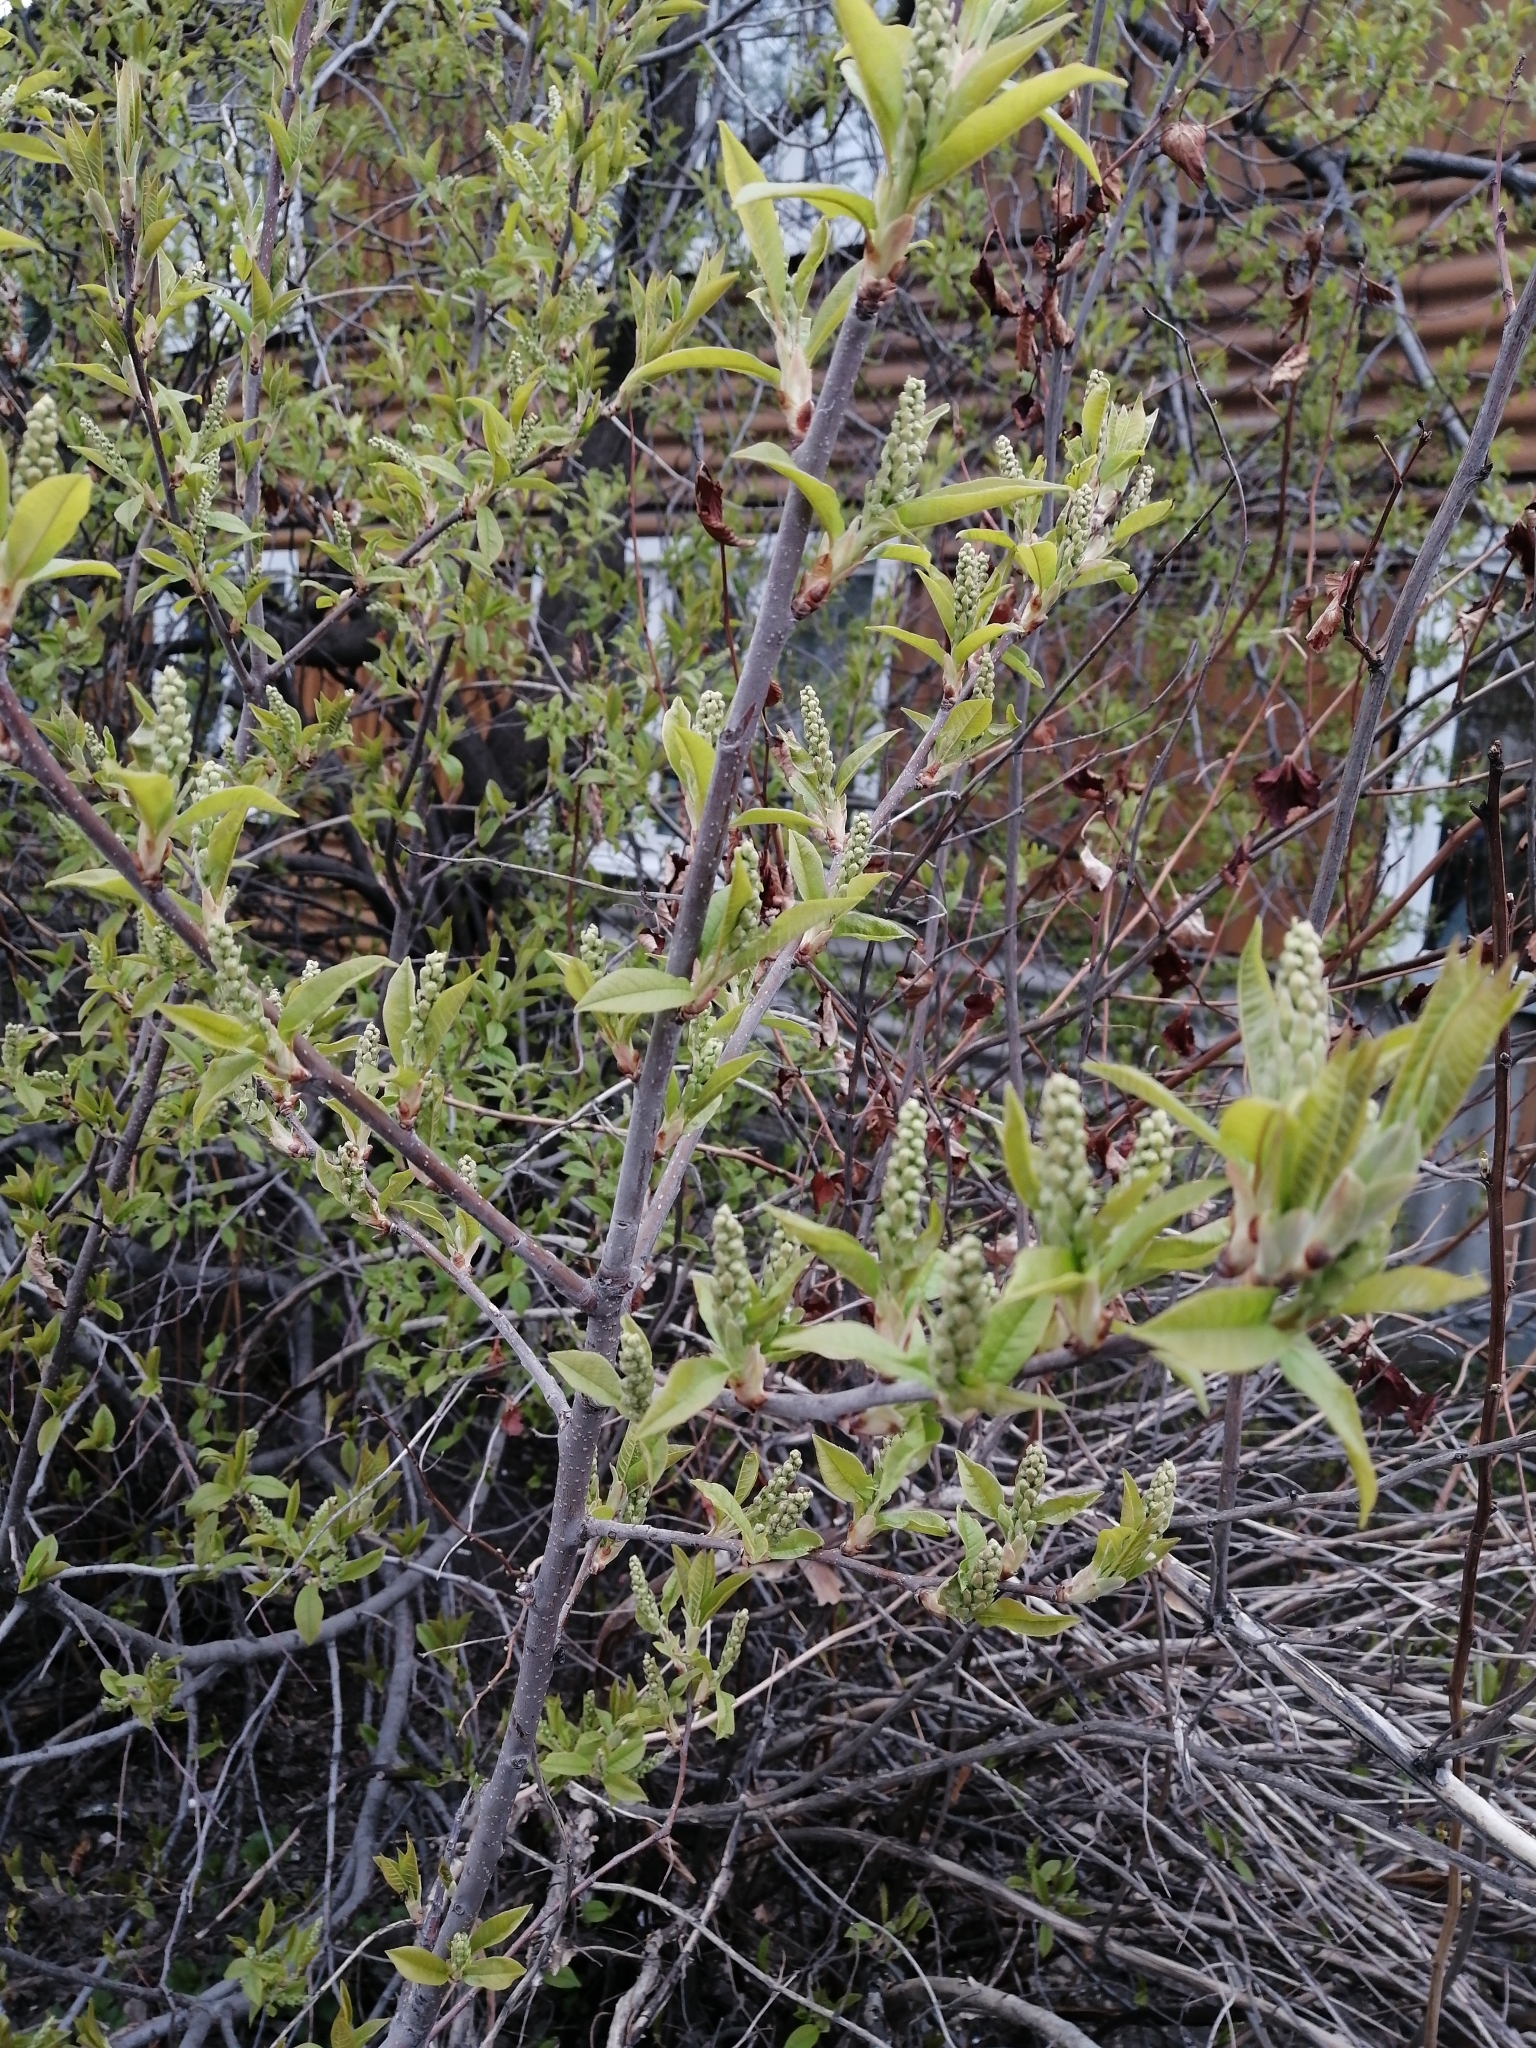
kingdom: Plantae
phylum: Tracheophyta
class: Magnoliopsida
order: Rosales
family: Rosaceae
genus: Prunus
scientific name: Prunus padus
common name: Bird cherry
